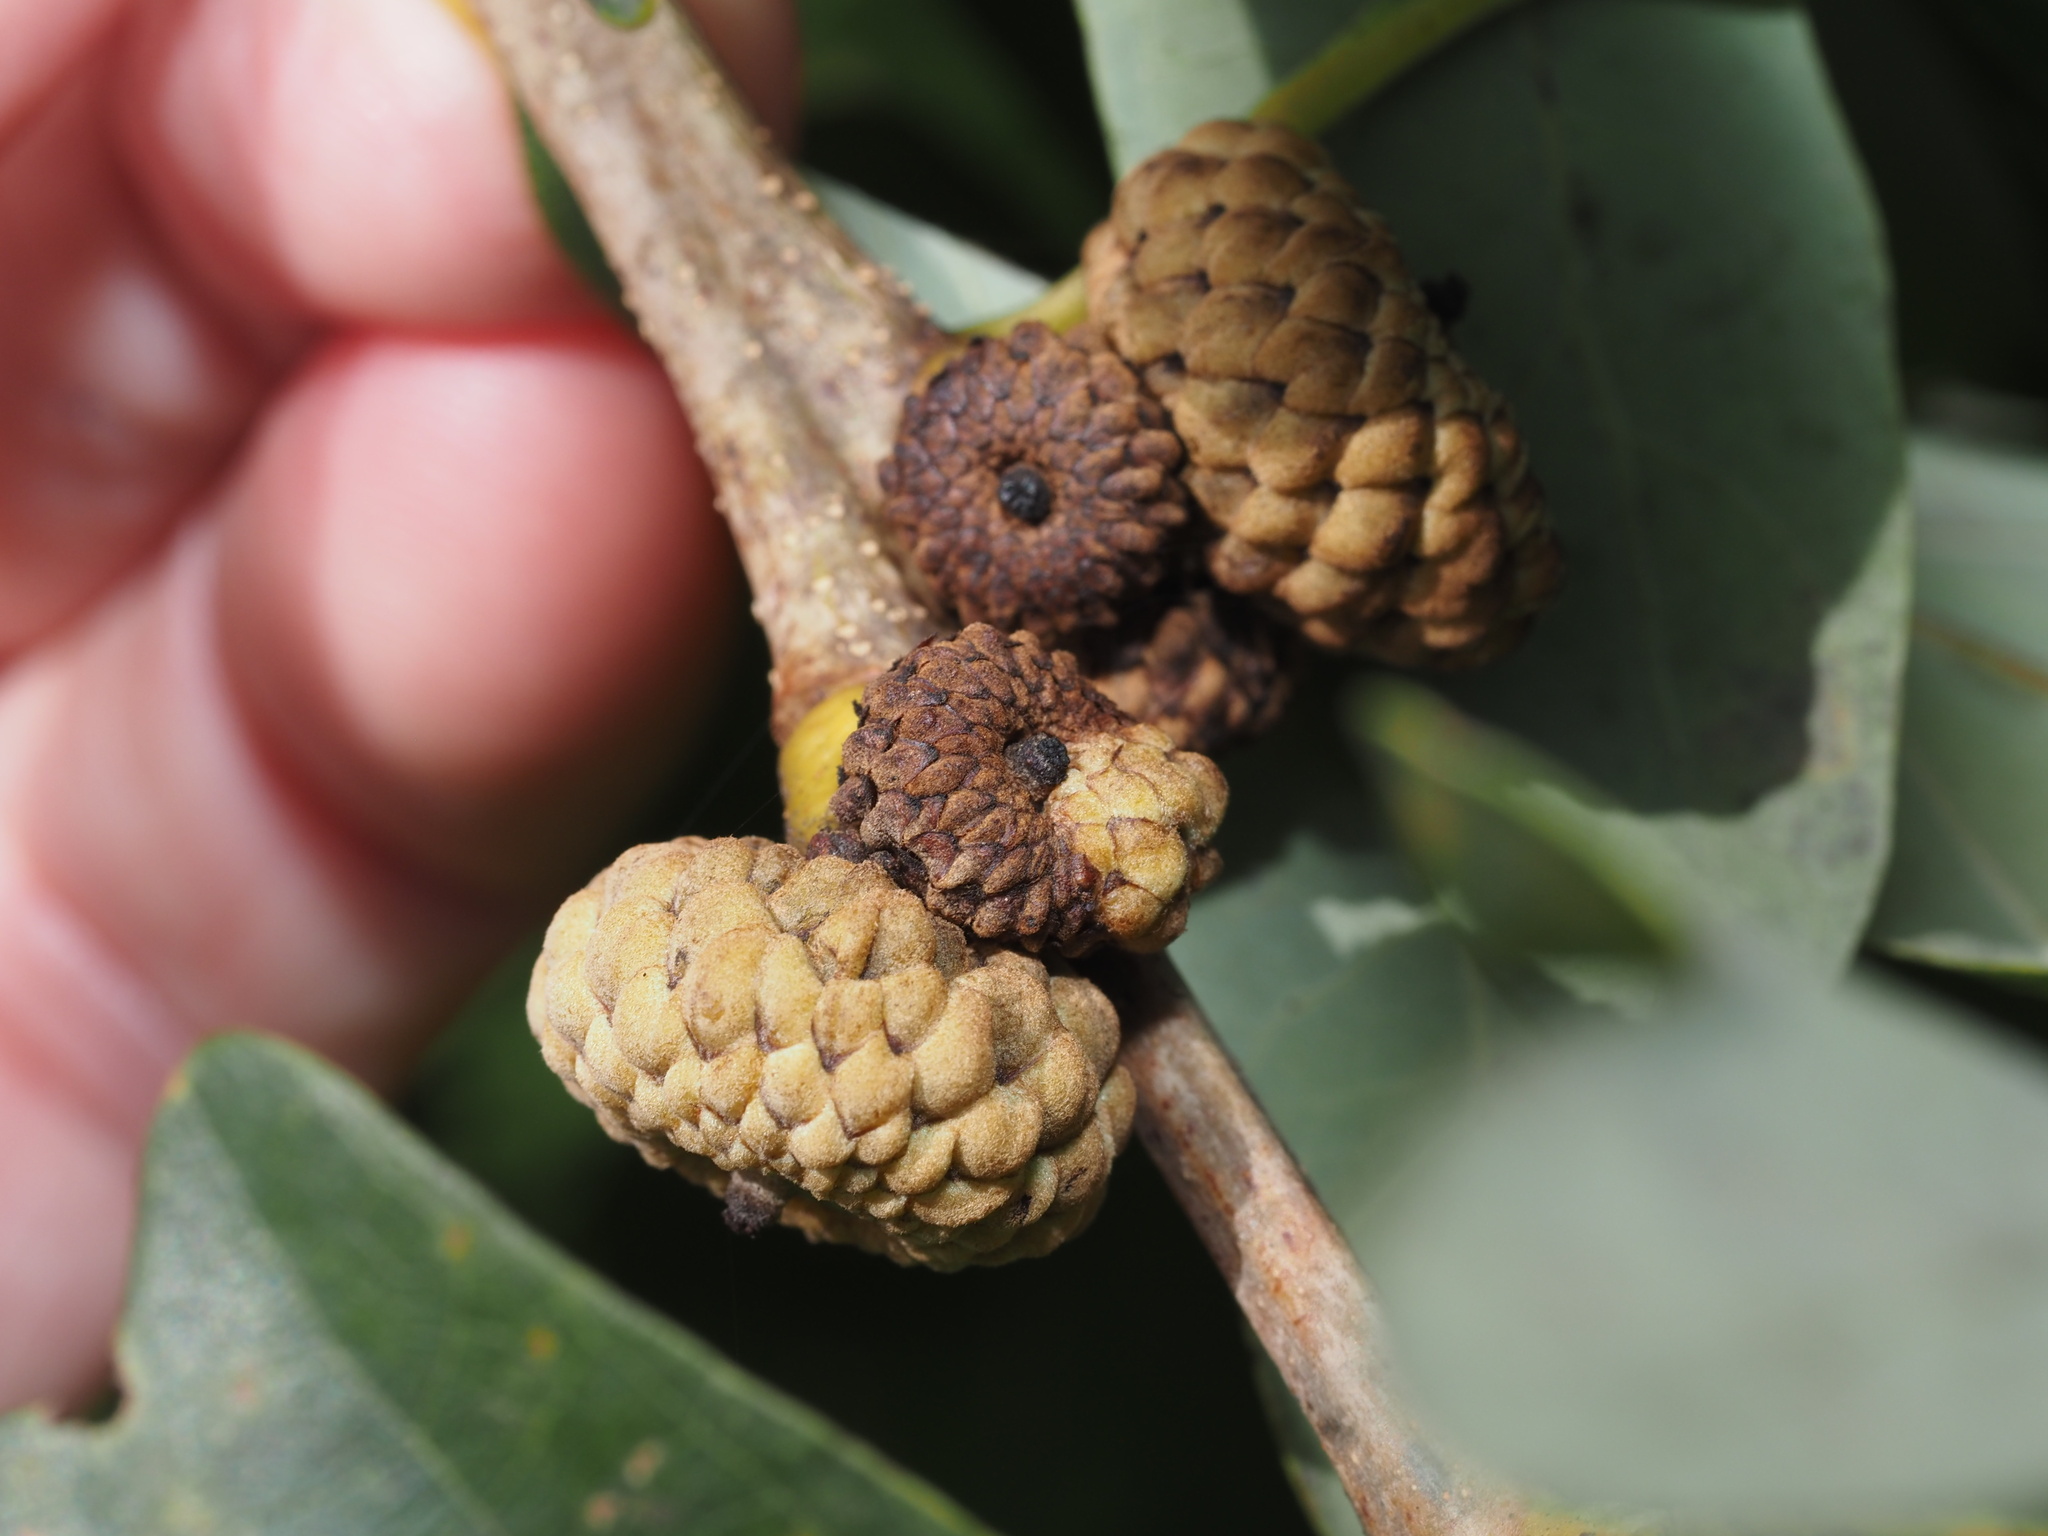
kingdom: Animalia
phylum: Arthropoda
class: Insecta
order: Hymenoptera
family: Cynipidae
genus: Callirhytis
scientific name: Callirhytis glandium
